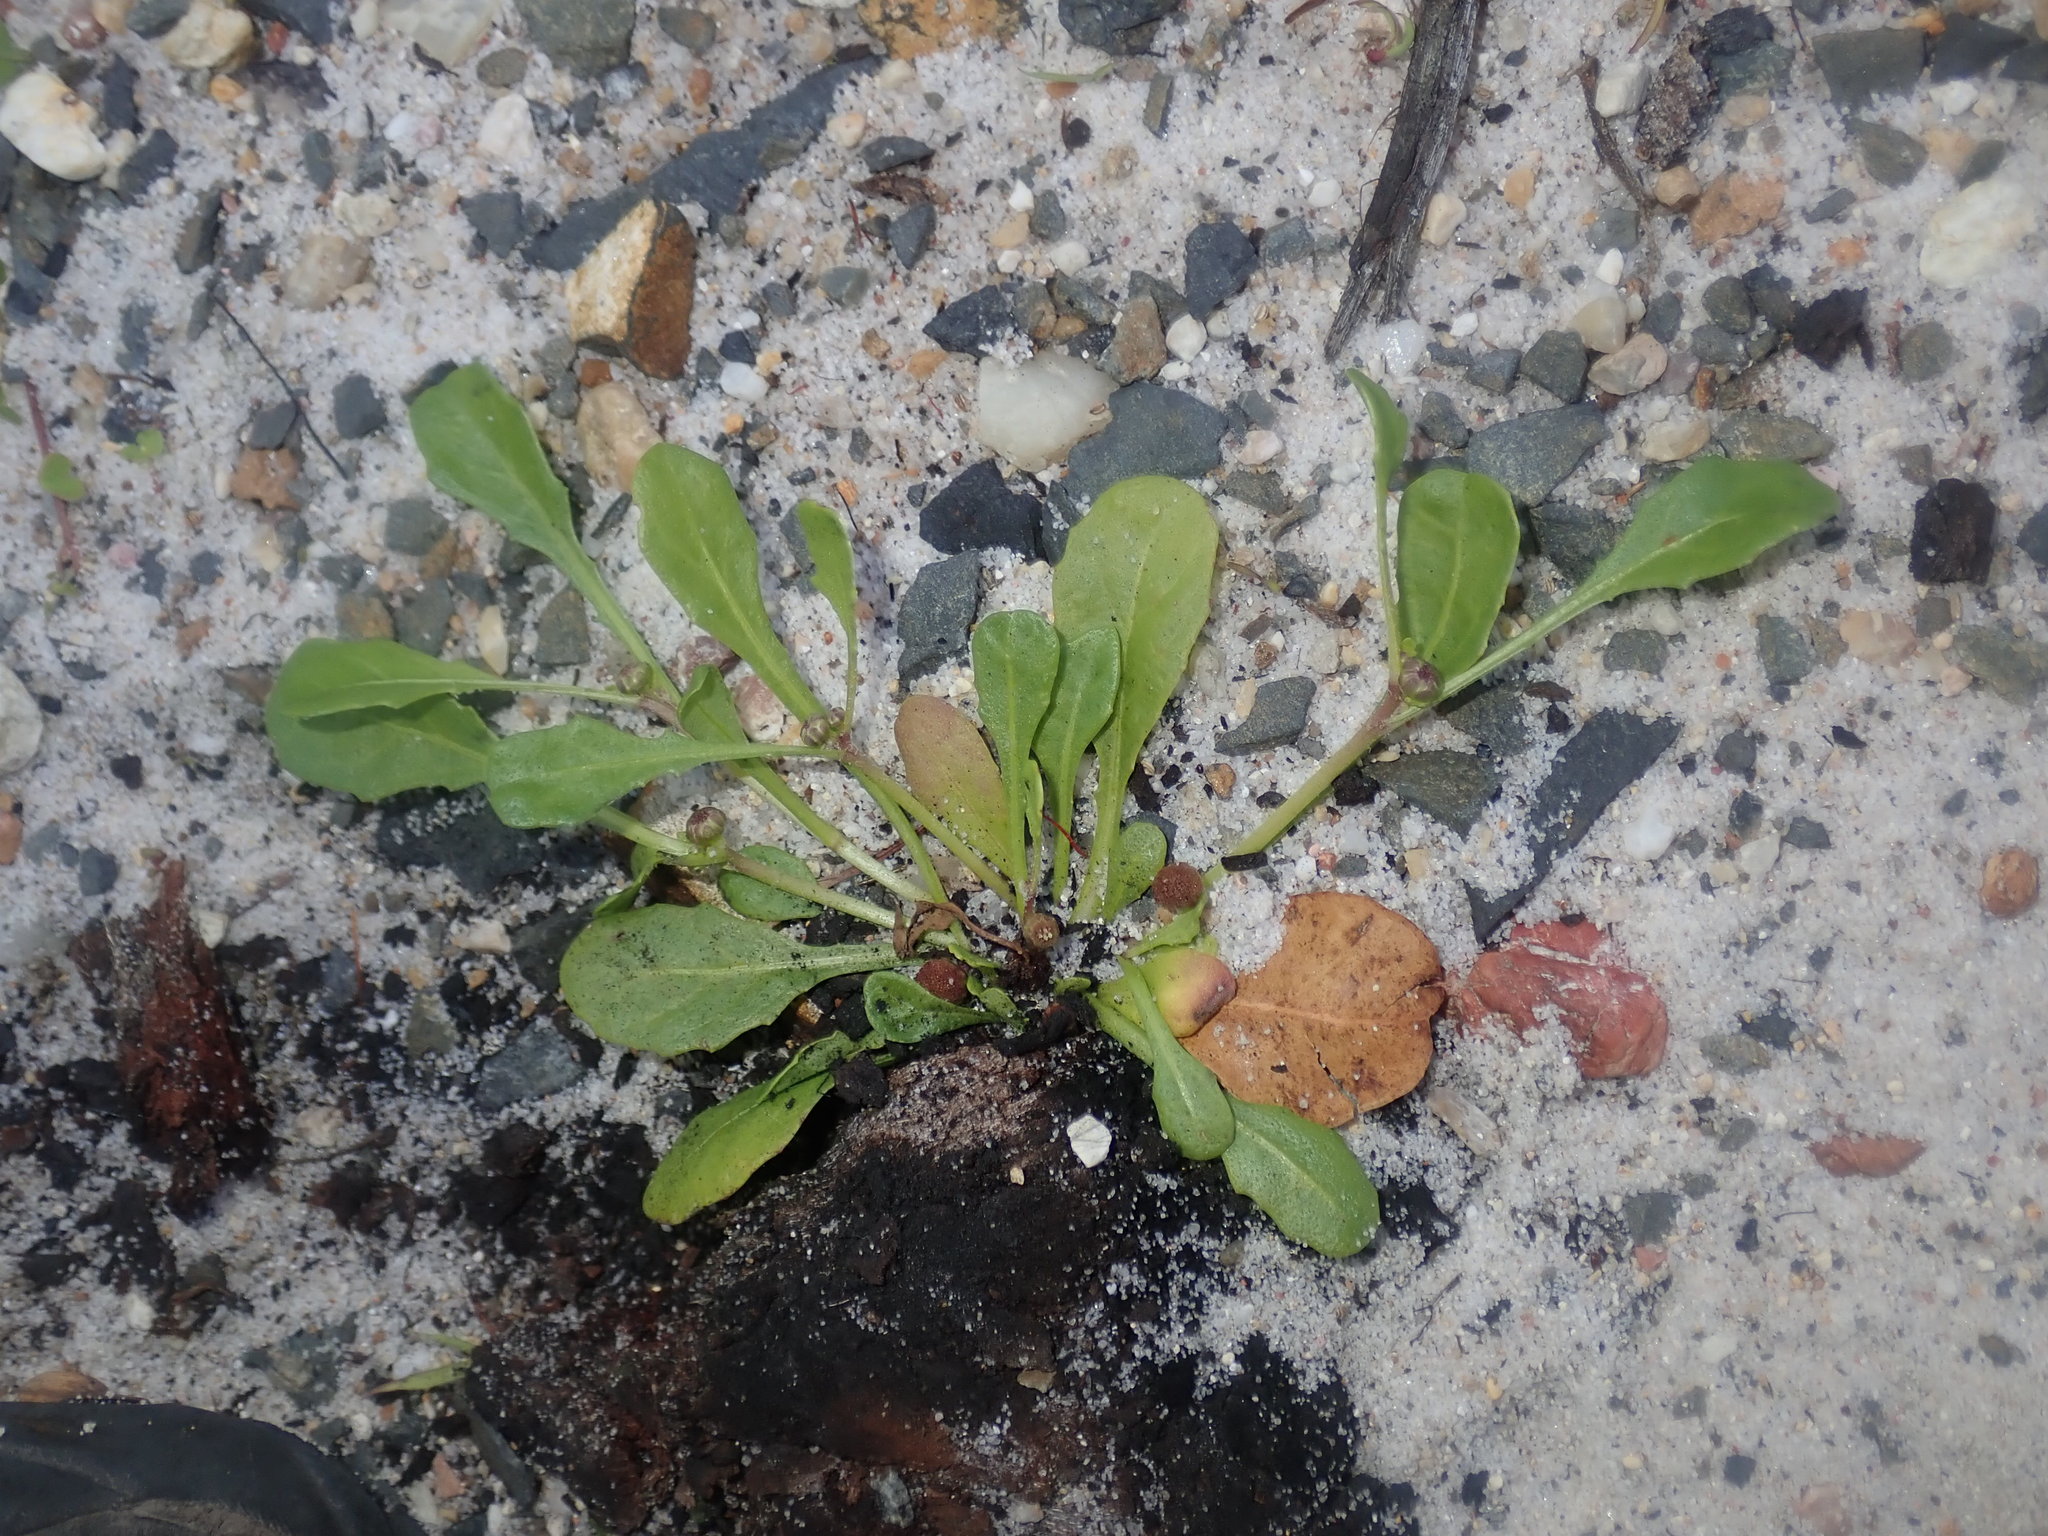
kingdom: Plantae
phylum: Tracheophyta
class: Magnoliopsida
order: Asterales
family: Asteraceae
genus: Sphaeromorphaea
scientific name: Sphaeromorphaea australis
